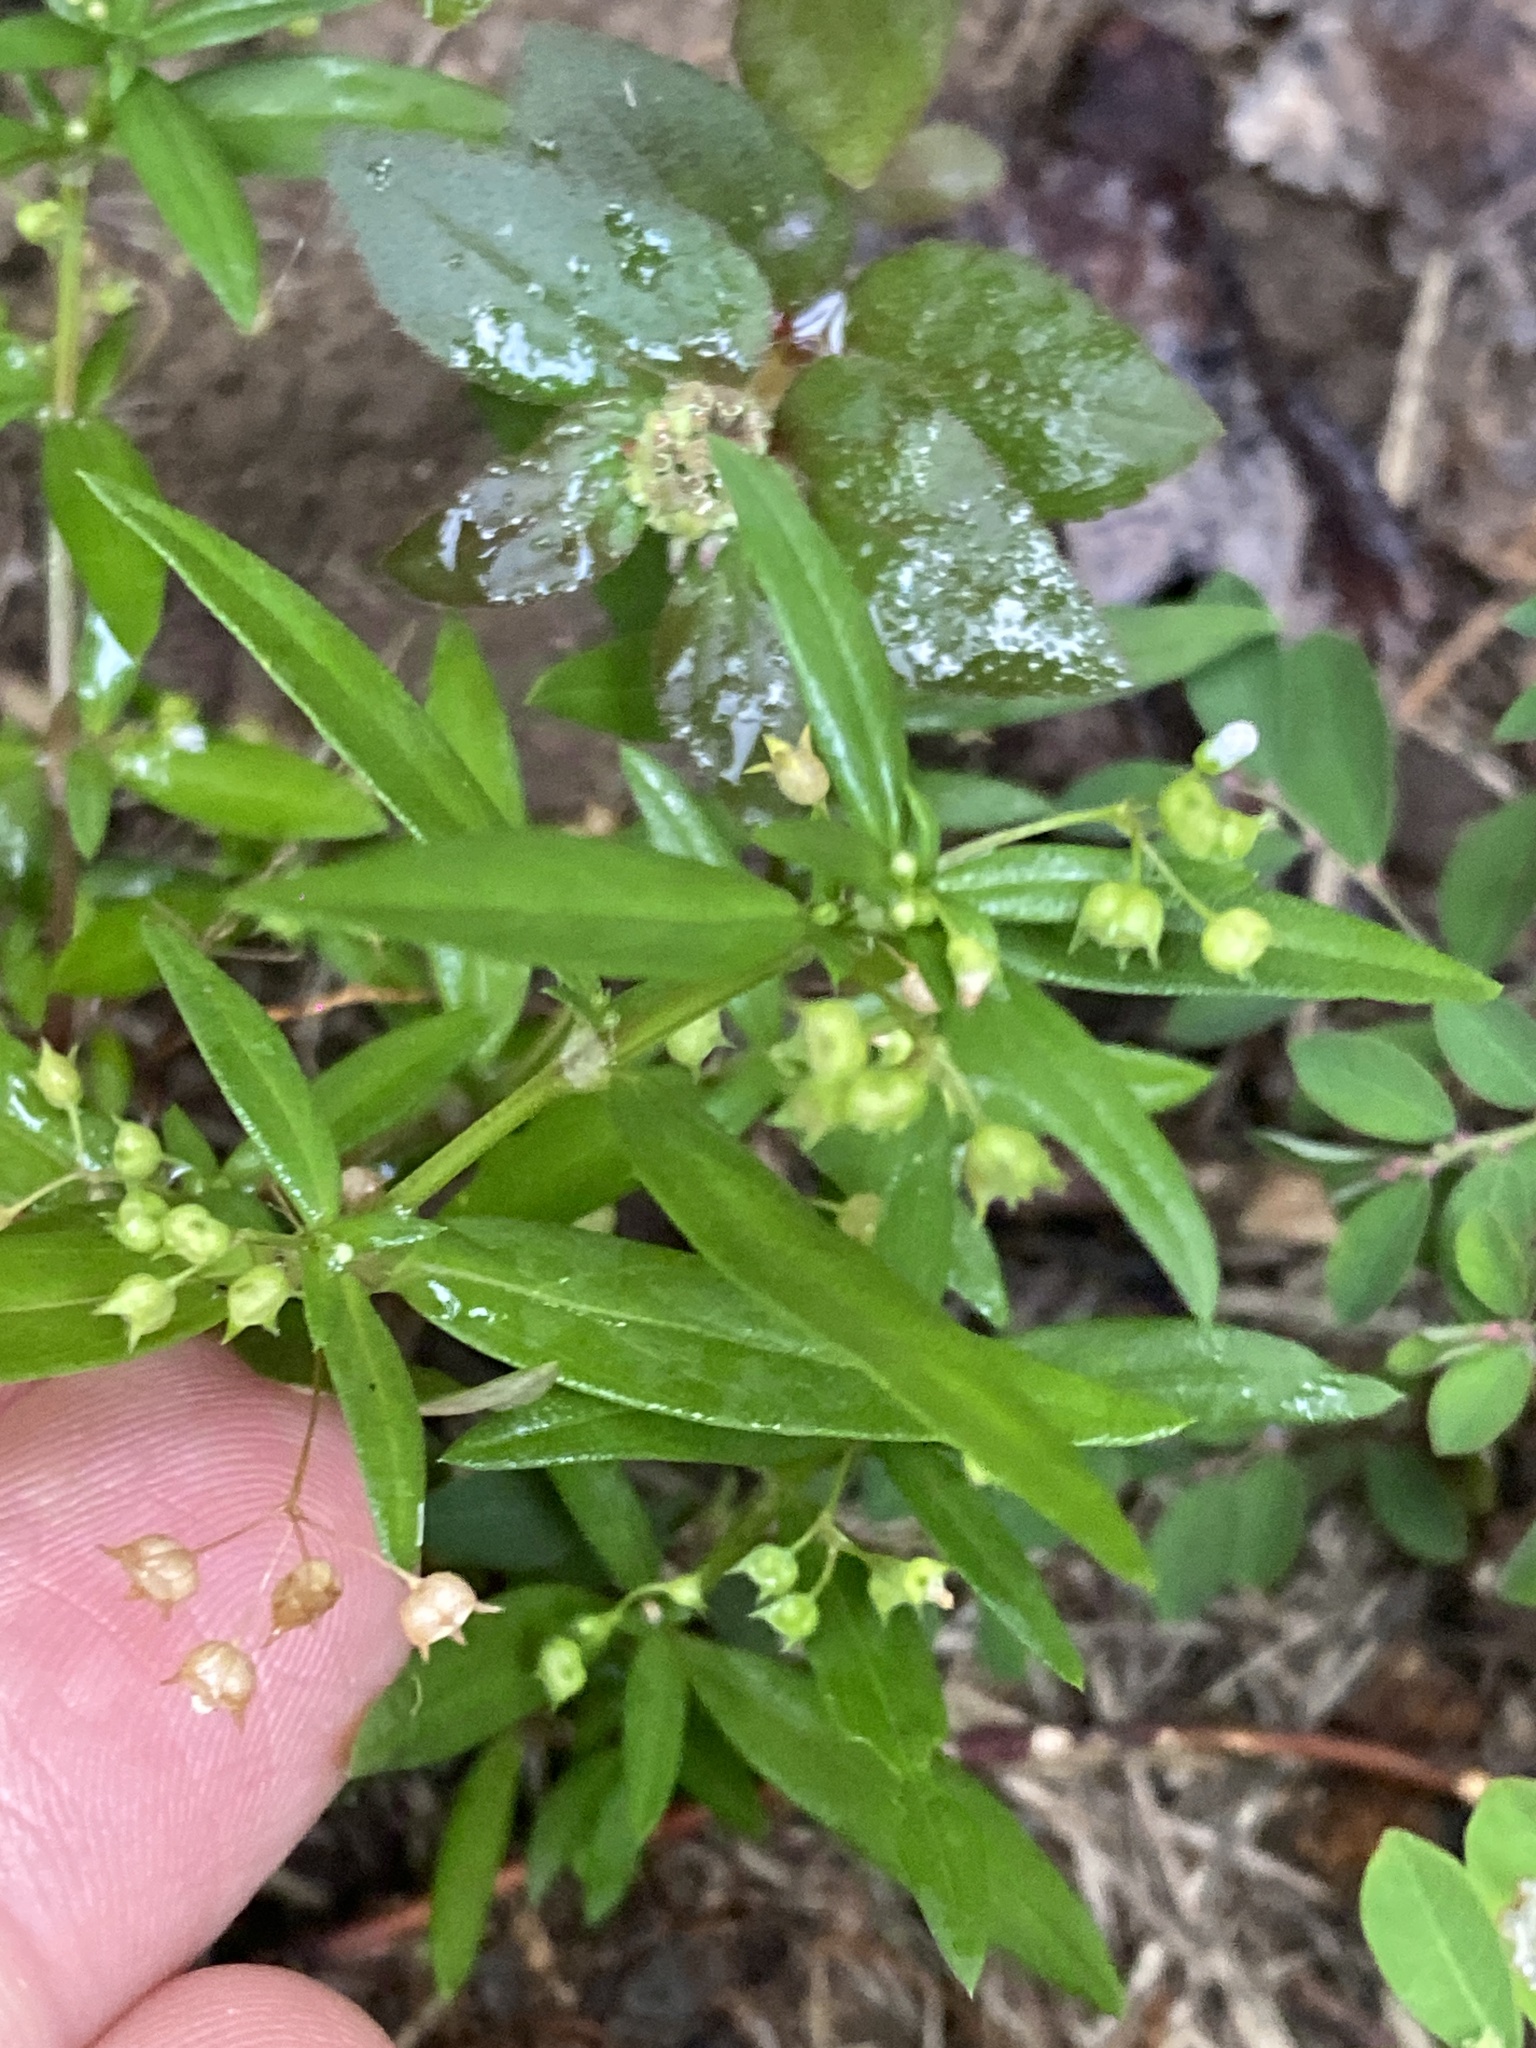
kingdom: Plantae
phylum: Tracheophyta
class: Magnoliopsida
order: Gentianales
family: Rubiaceae
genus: Oldenlandia
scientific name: Oldenlandia corymbosa
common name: Flat-top mille graines
